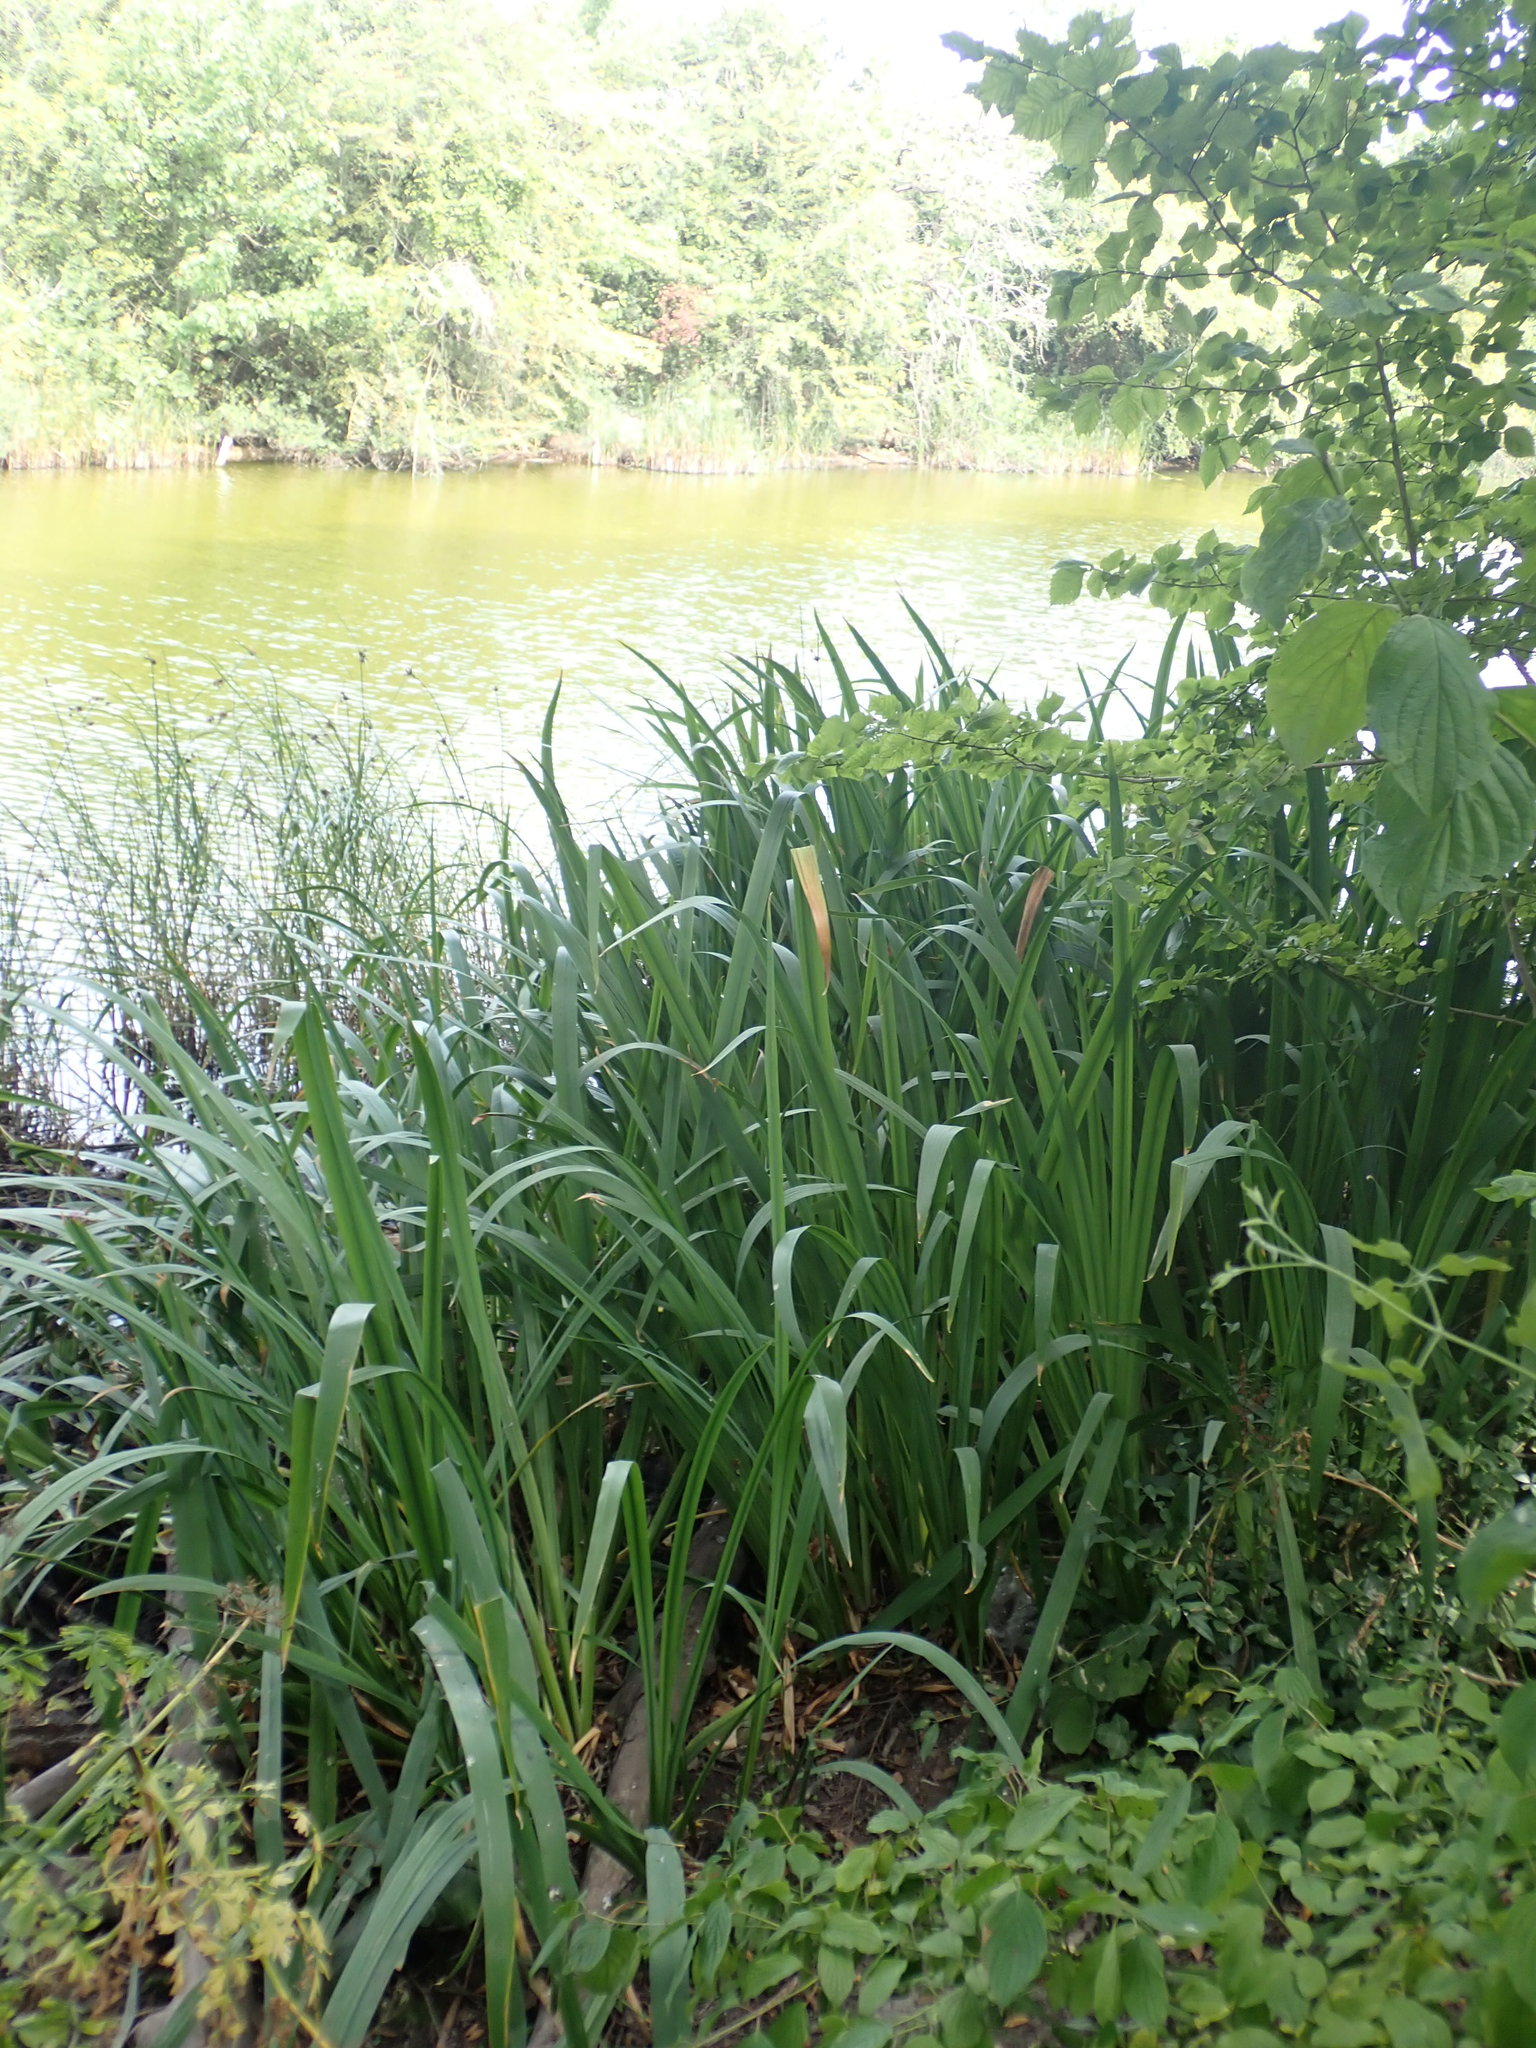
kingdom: Plantae
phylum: Tracheophyta
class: Liliopsida
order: Asparagales
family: Iridaceae
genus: Iris
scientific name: Iris pseudacorus
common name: Yellow flag
